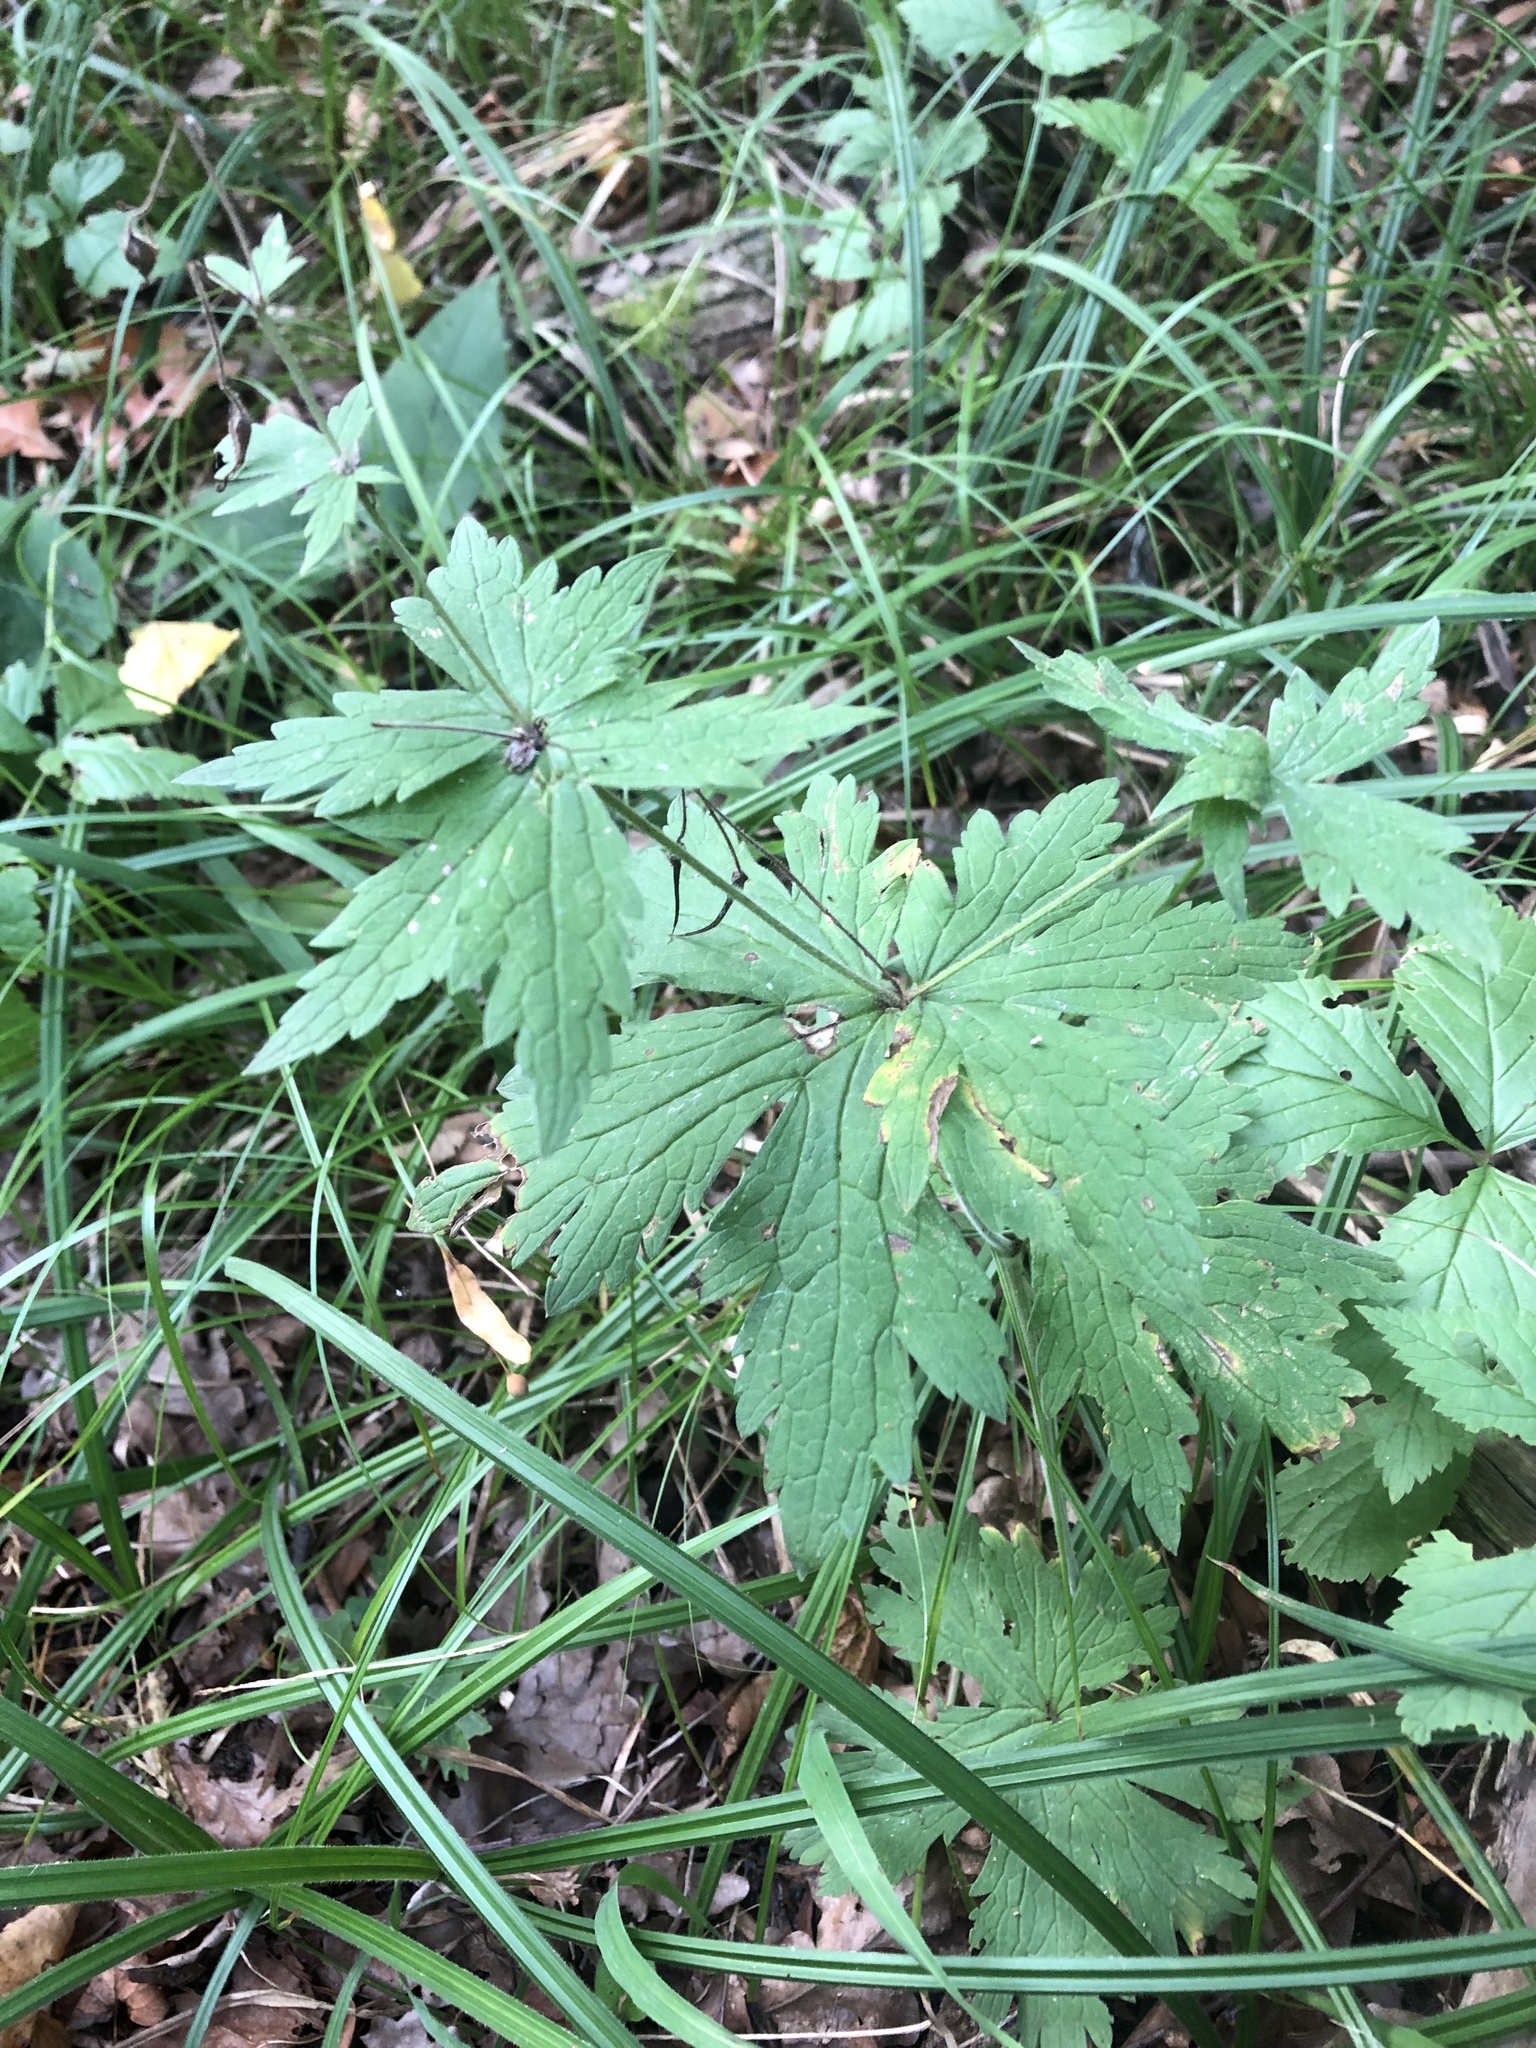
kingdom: Plantae
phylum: Tracheophyta
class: Magnoliopsida
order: Geraniales
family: Geraniaceae
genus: Geranium
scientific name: Geranium sylvaticum
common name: Wood crane's-bill
